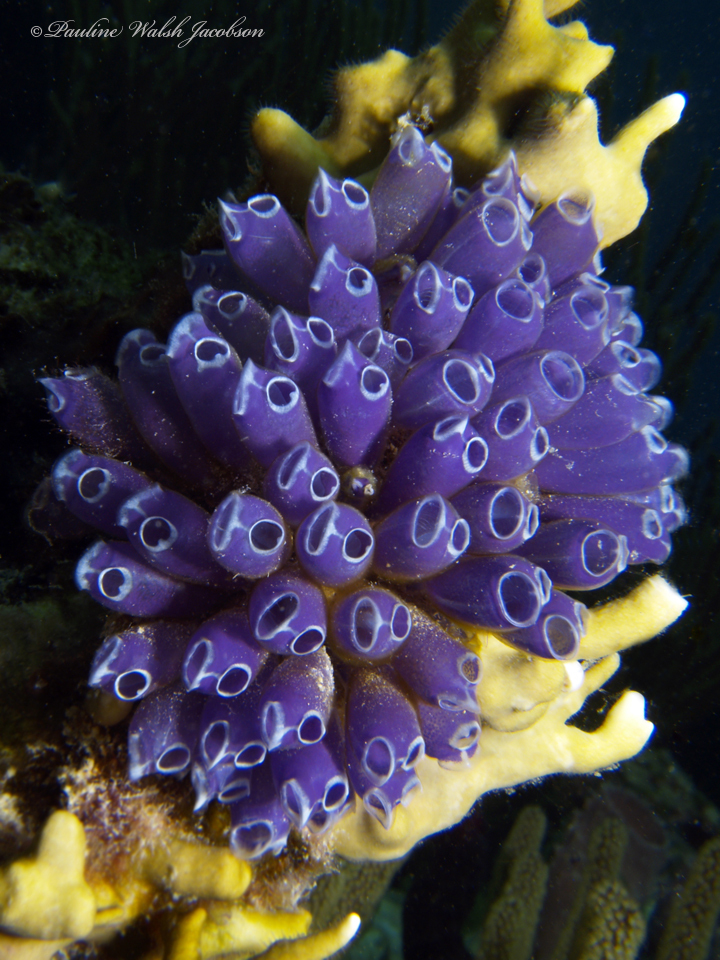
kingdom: Animalia
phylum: Chordata
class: Ascidiacea
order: Aplousobranchia
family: Clavelinidae
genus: Clavelina
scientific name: Clavelina puertosecensis
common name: Blue bell tunicate
